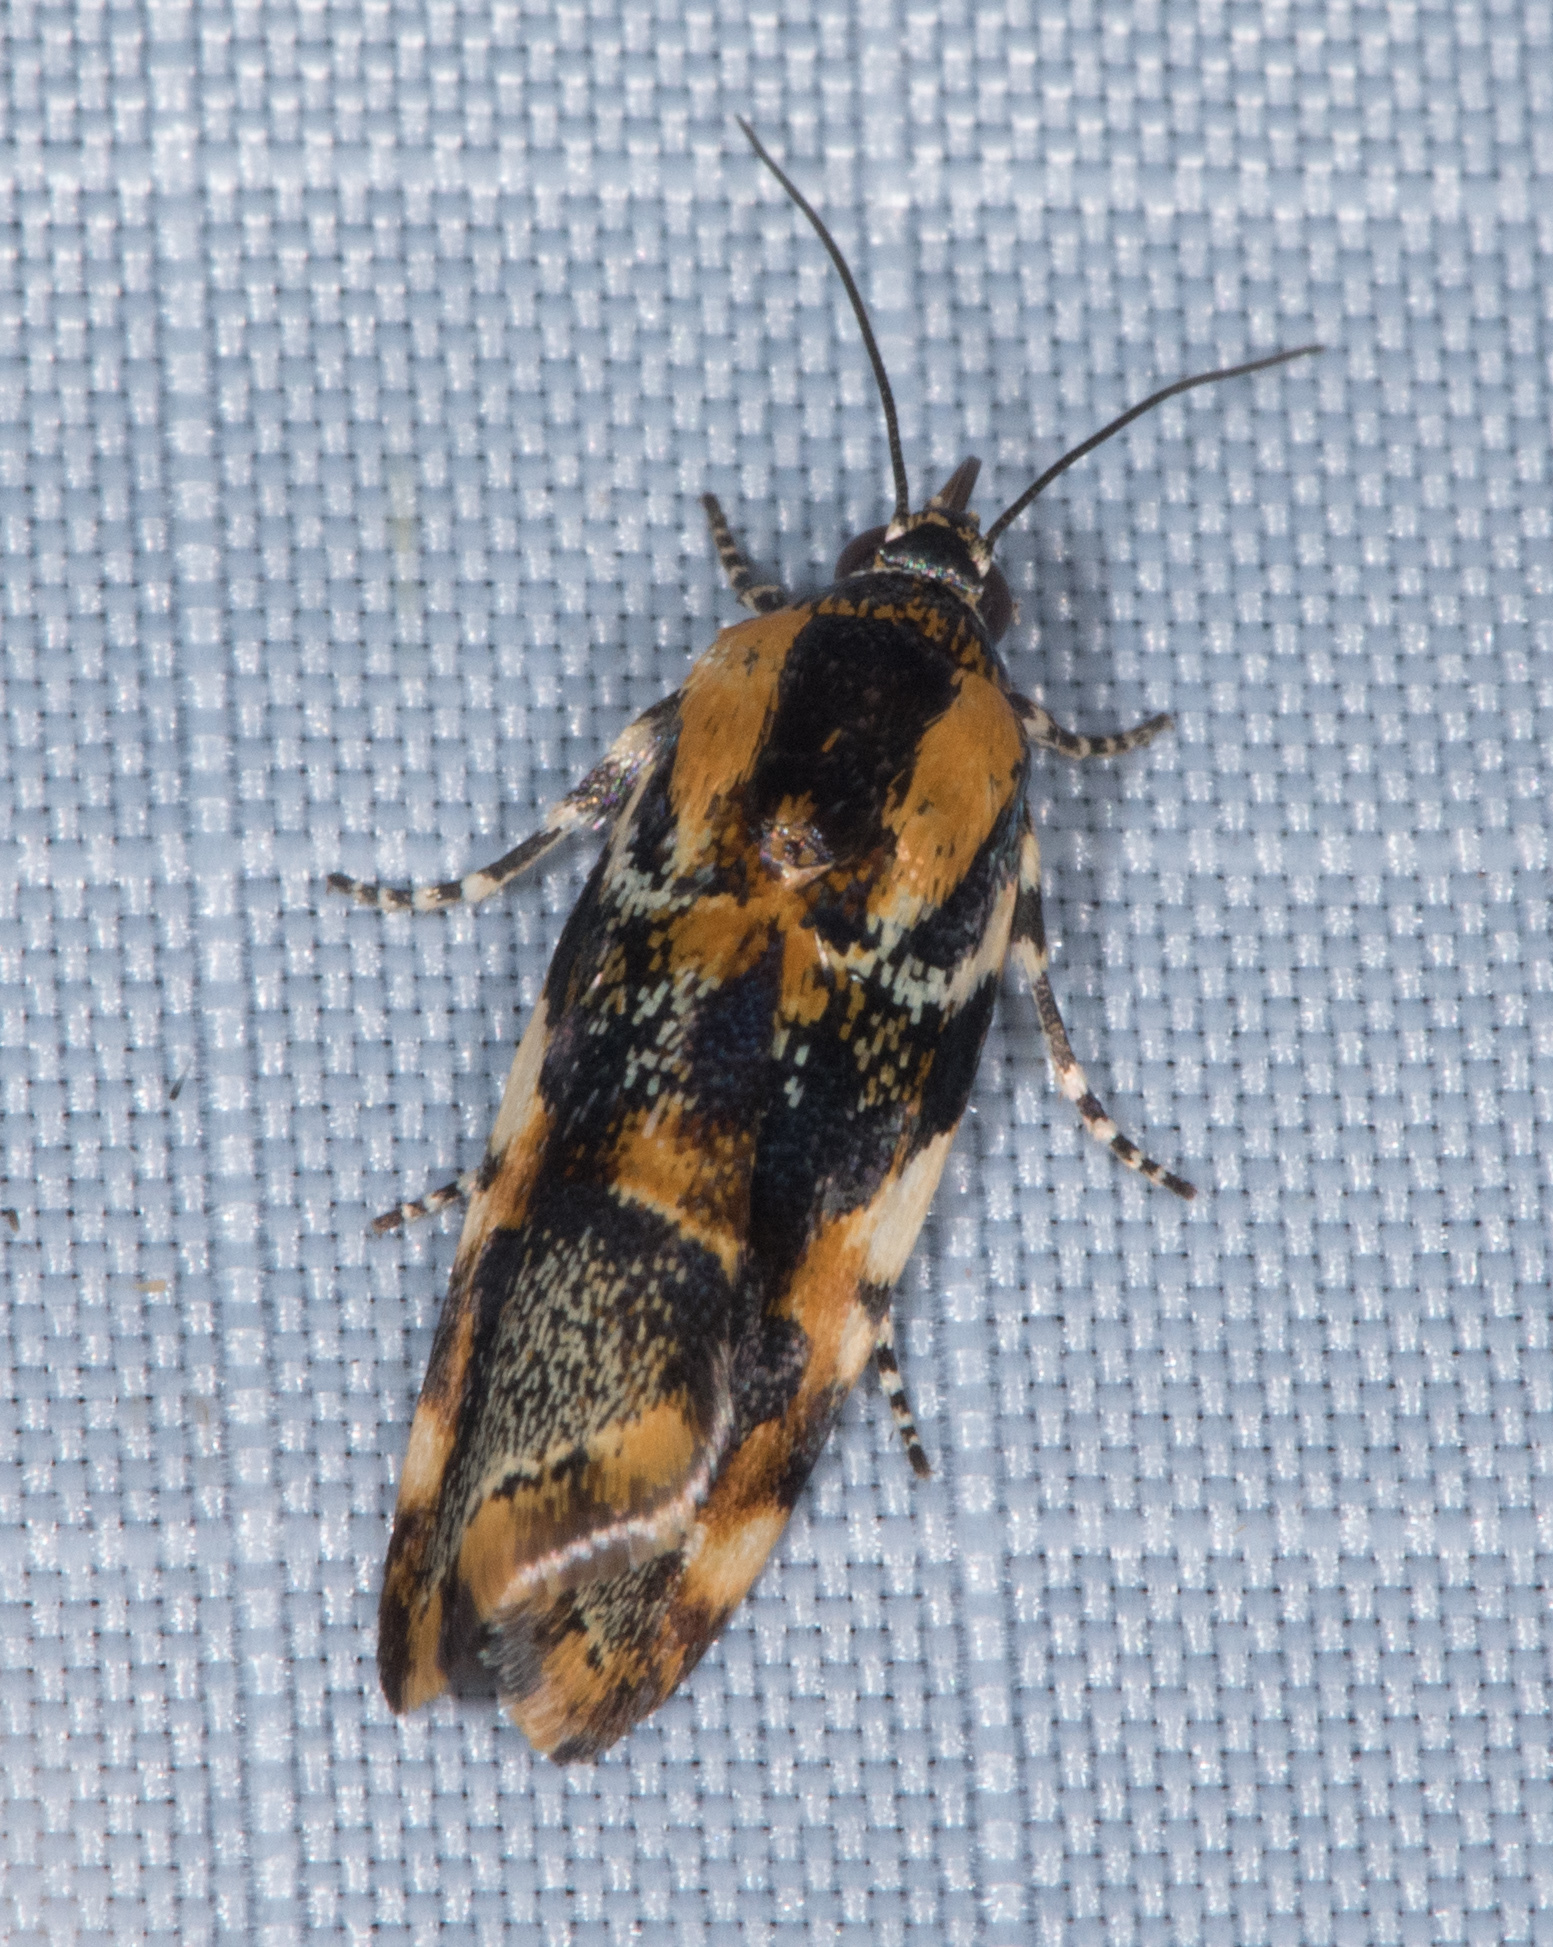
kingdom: Animalia
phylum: Arthropoda
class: Insecta
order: Lepidoptera
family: Noctuidae
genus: Spragueia
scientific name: Spragueia jaguaralis
